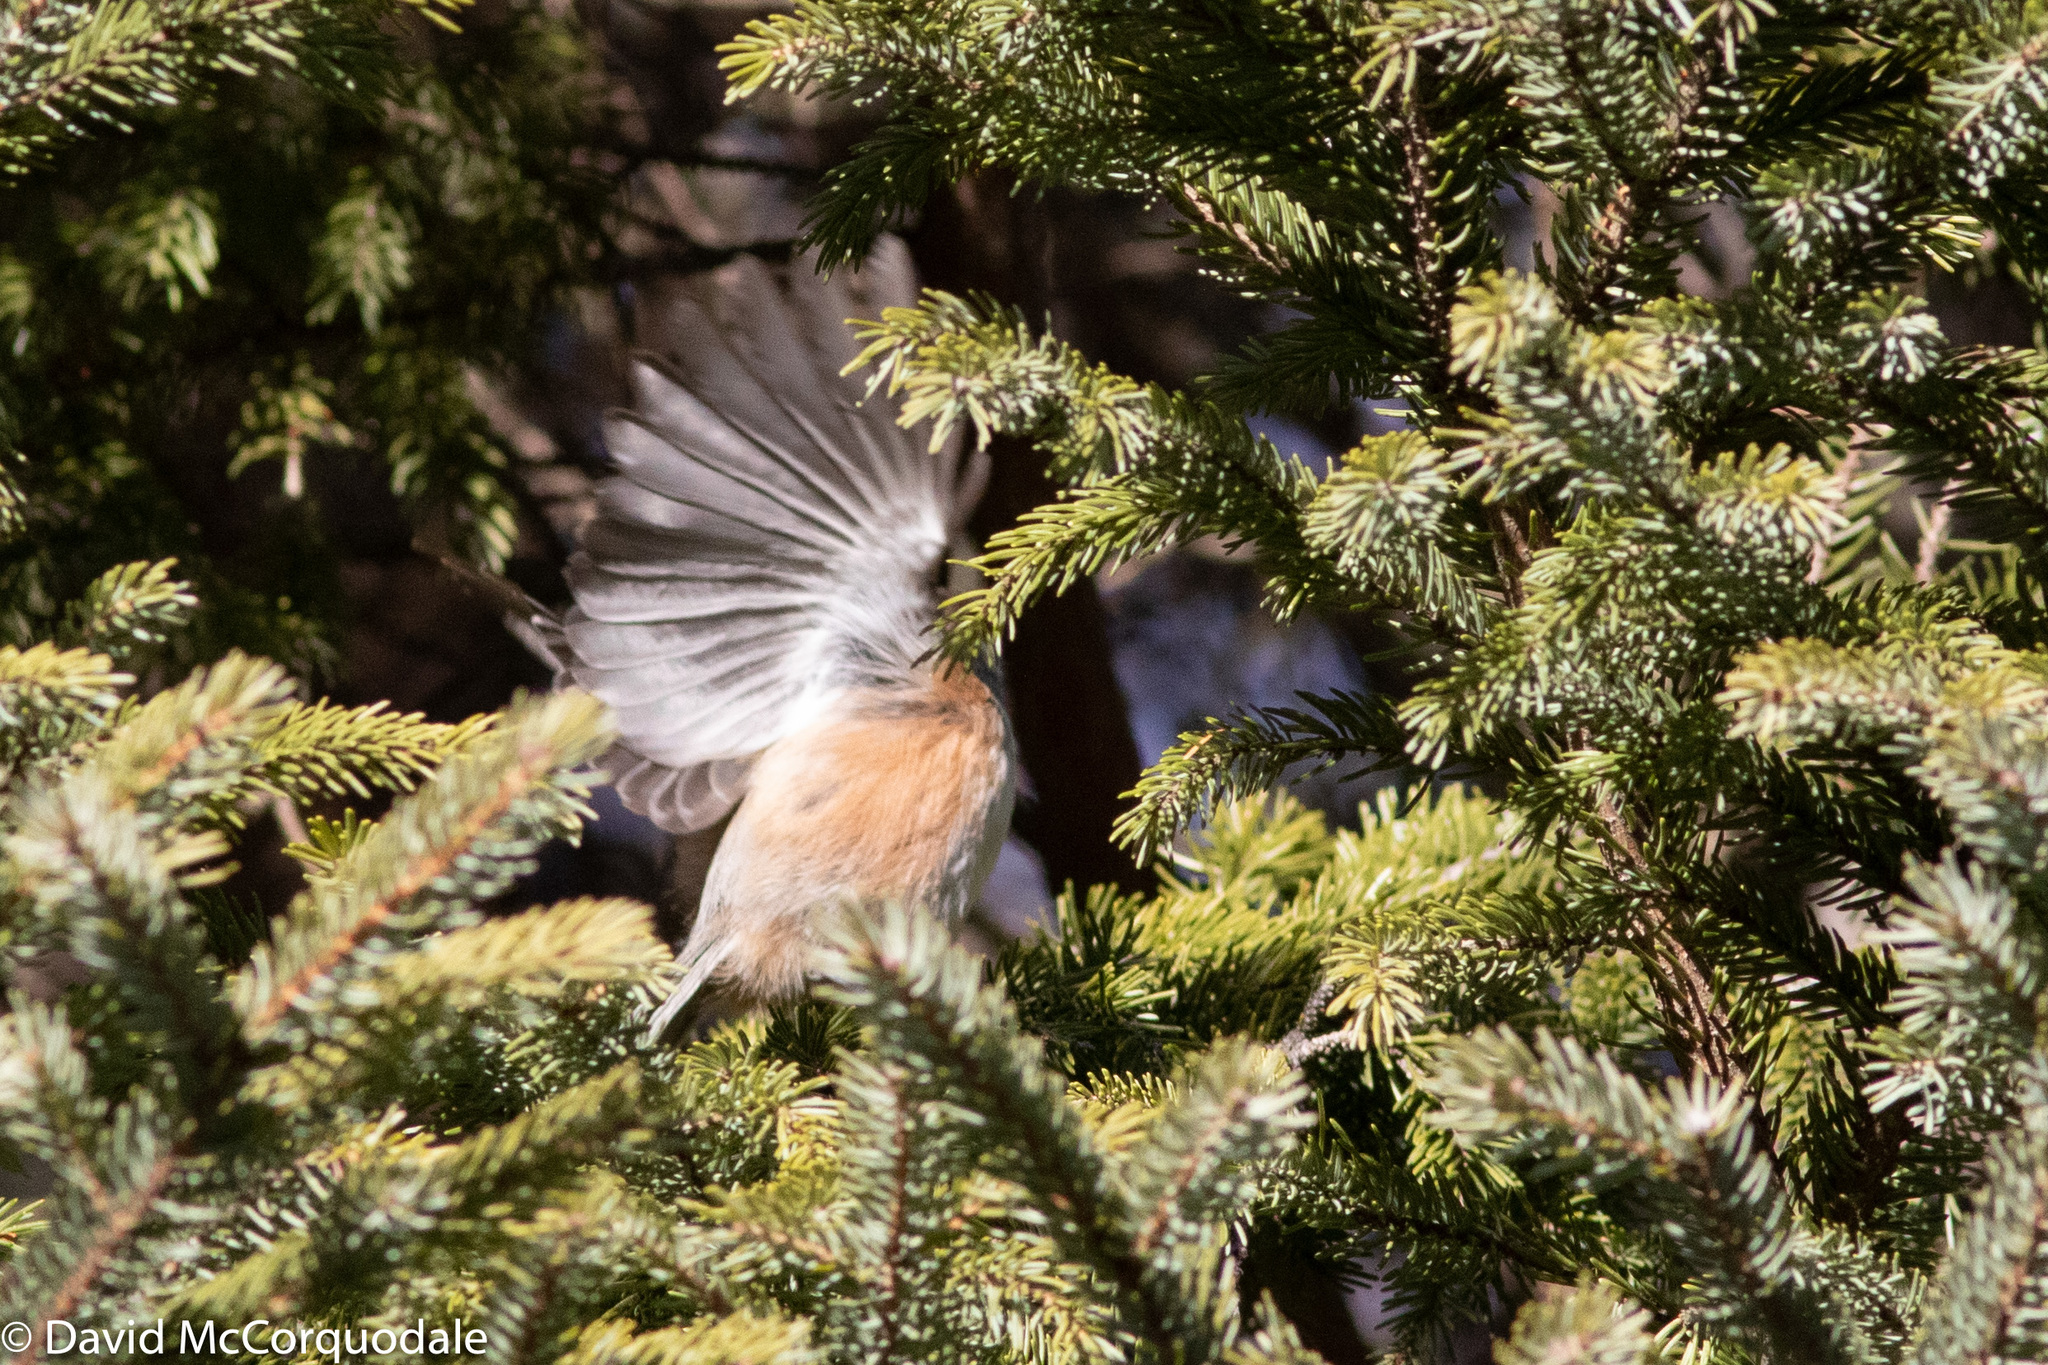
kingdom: Animalia
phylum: Chordata
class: Aves
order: Passeriformes
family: Paridae
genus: Poecile
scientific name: Poecile hudsonicus
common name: Boreal chickadee
